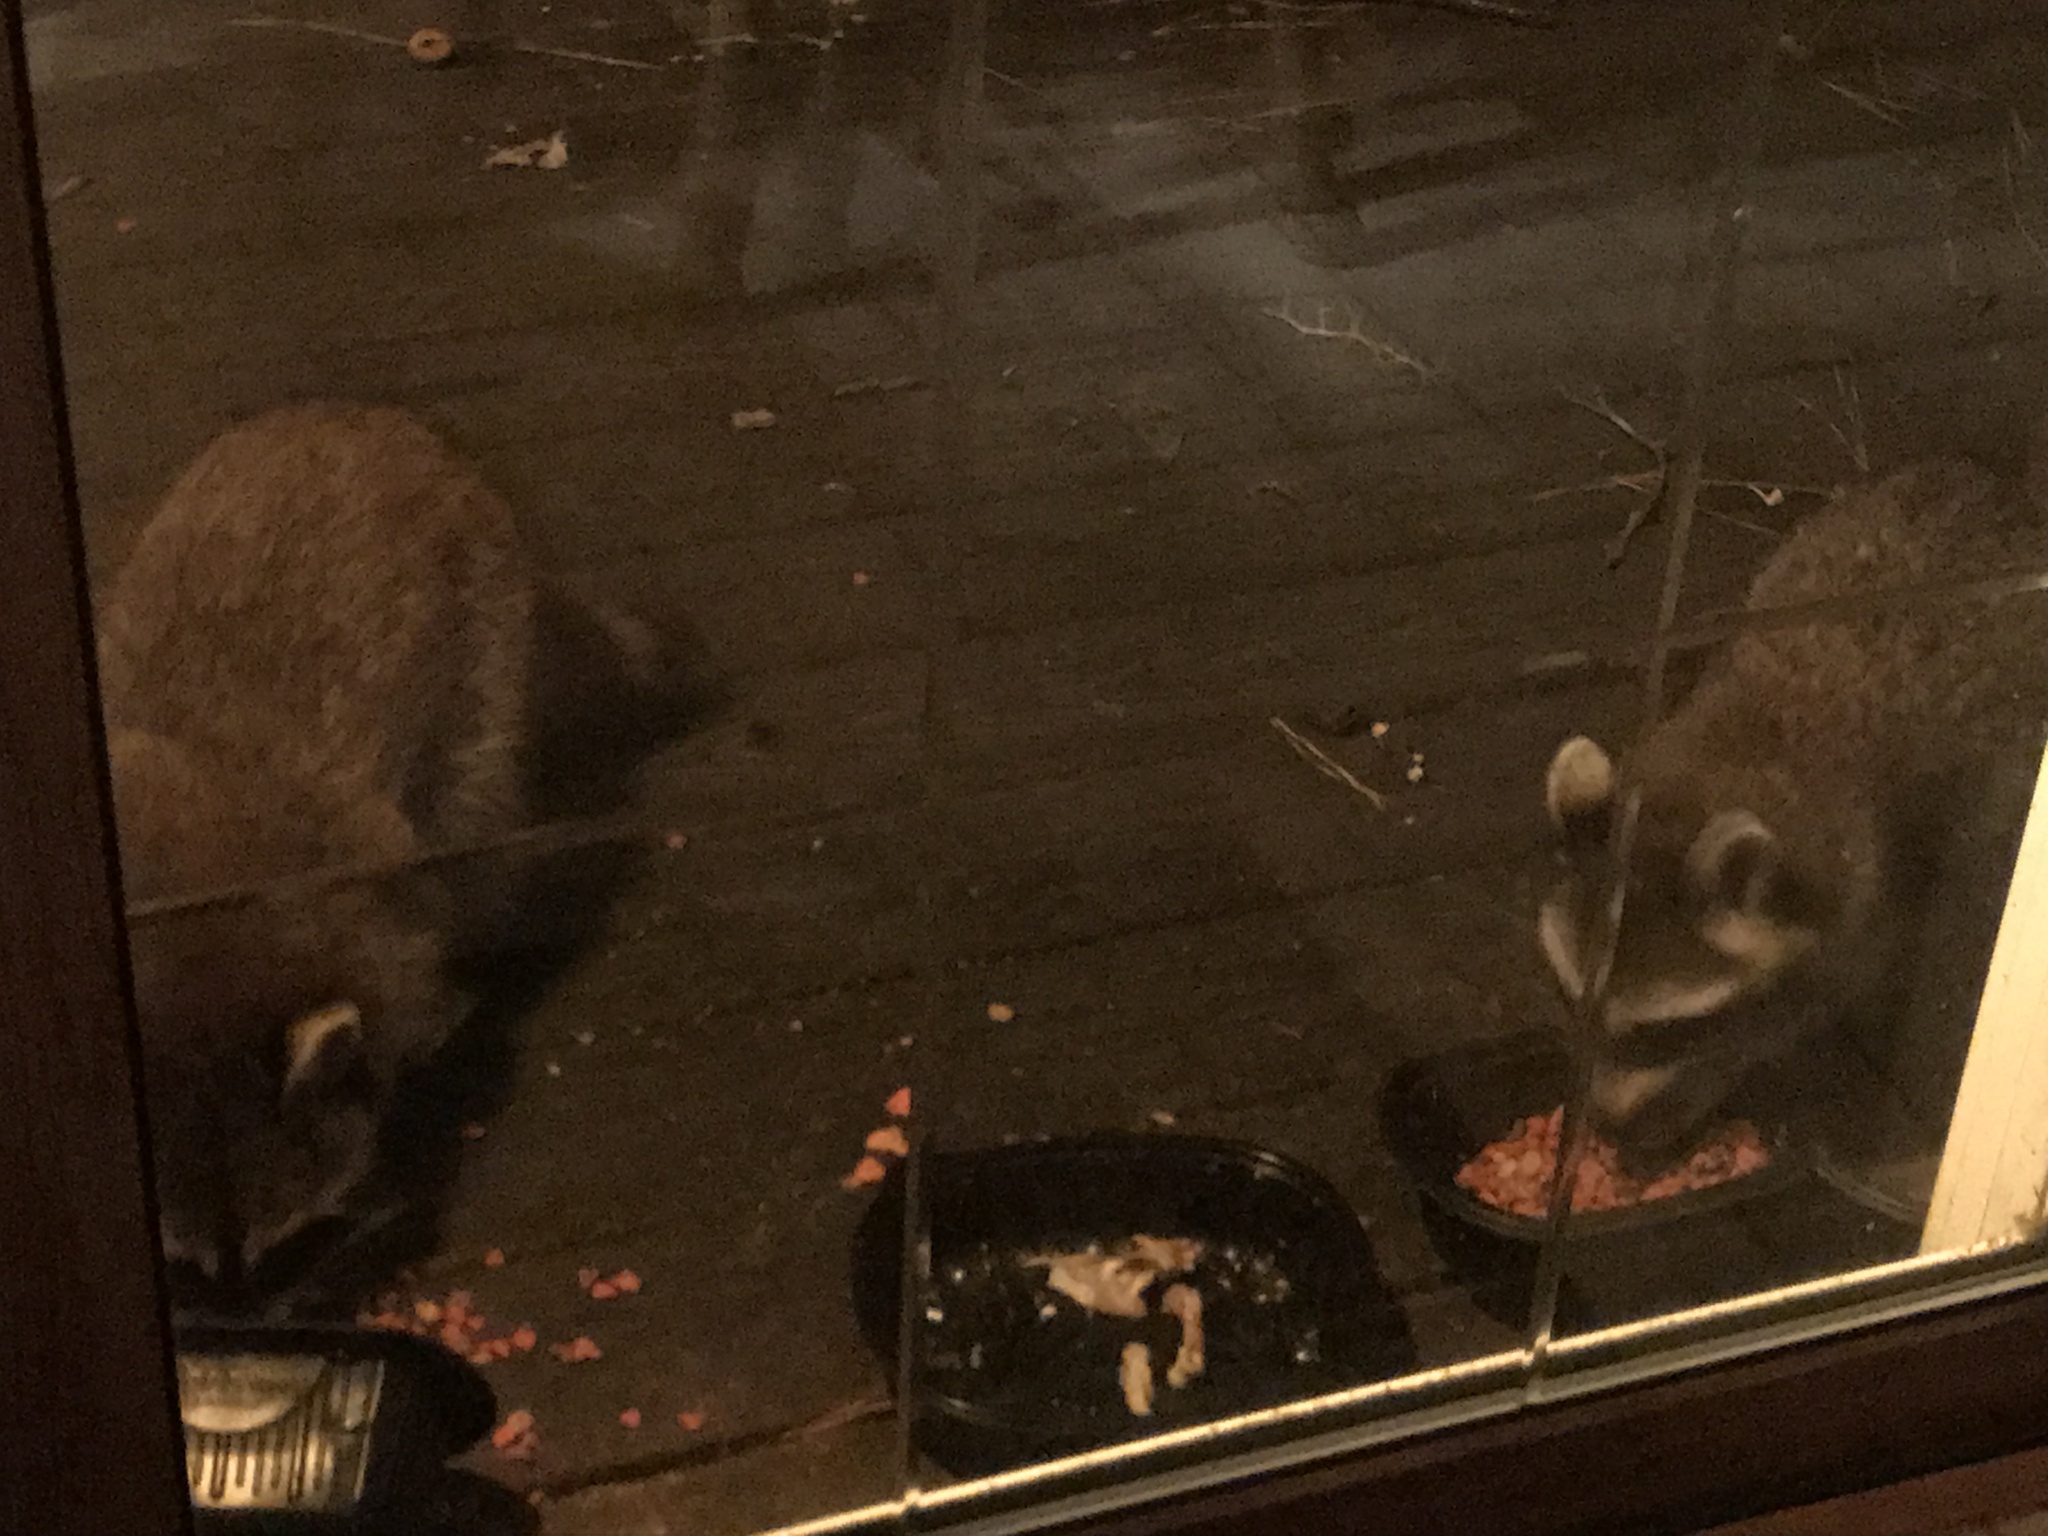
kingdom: Animalia
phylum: Chordata
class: Mammalia
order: Carnivora
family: Procyonidae
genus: Procyon
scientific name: Procyon lotor
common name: Raccoon
